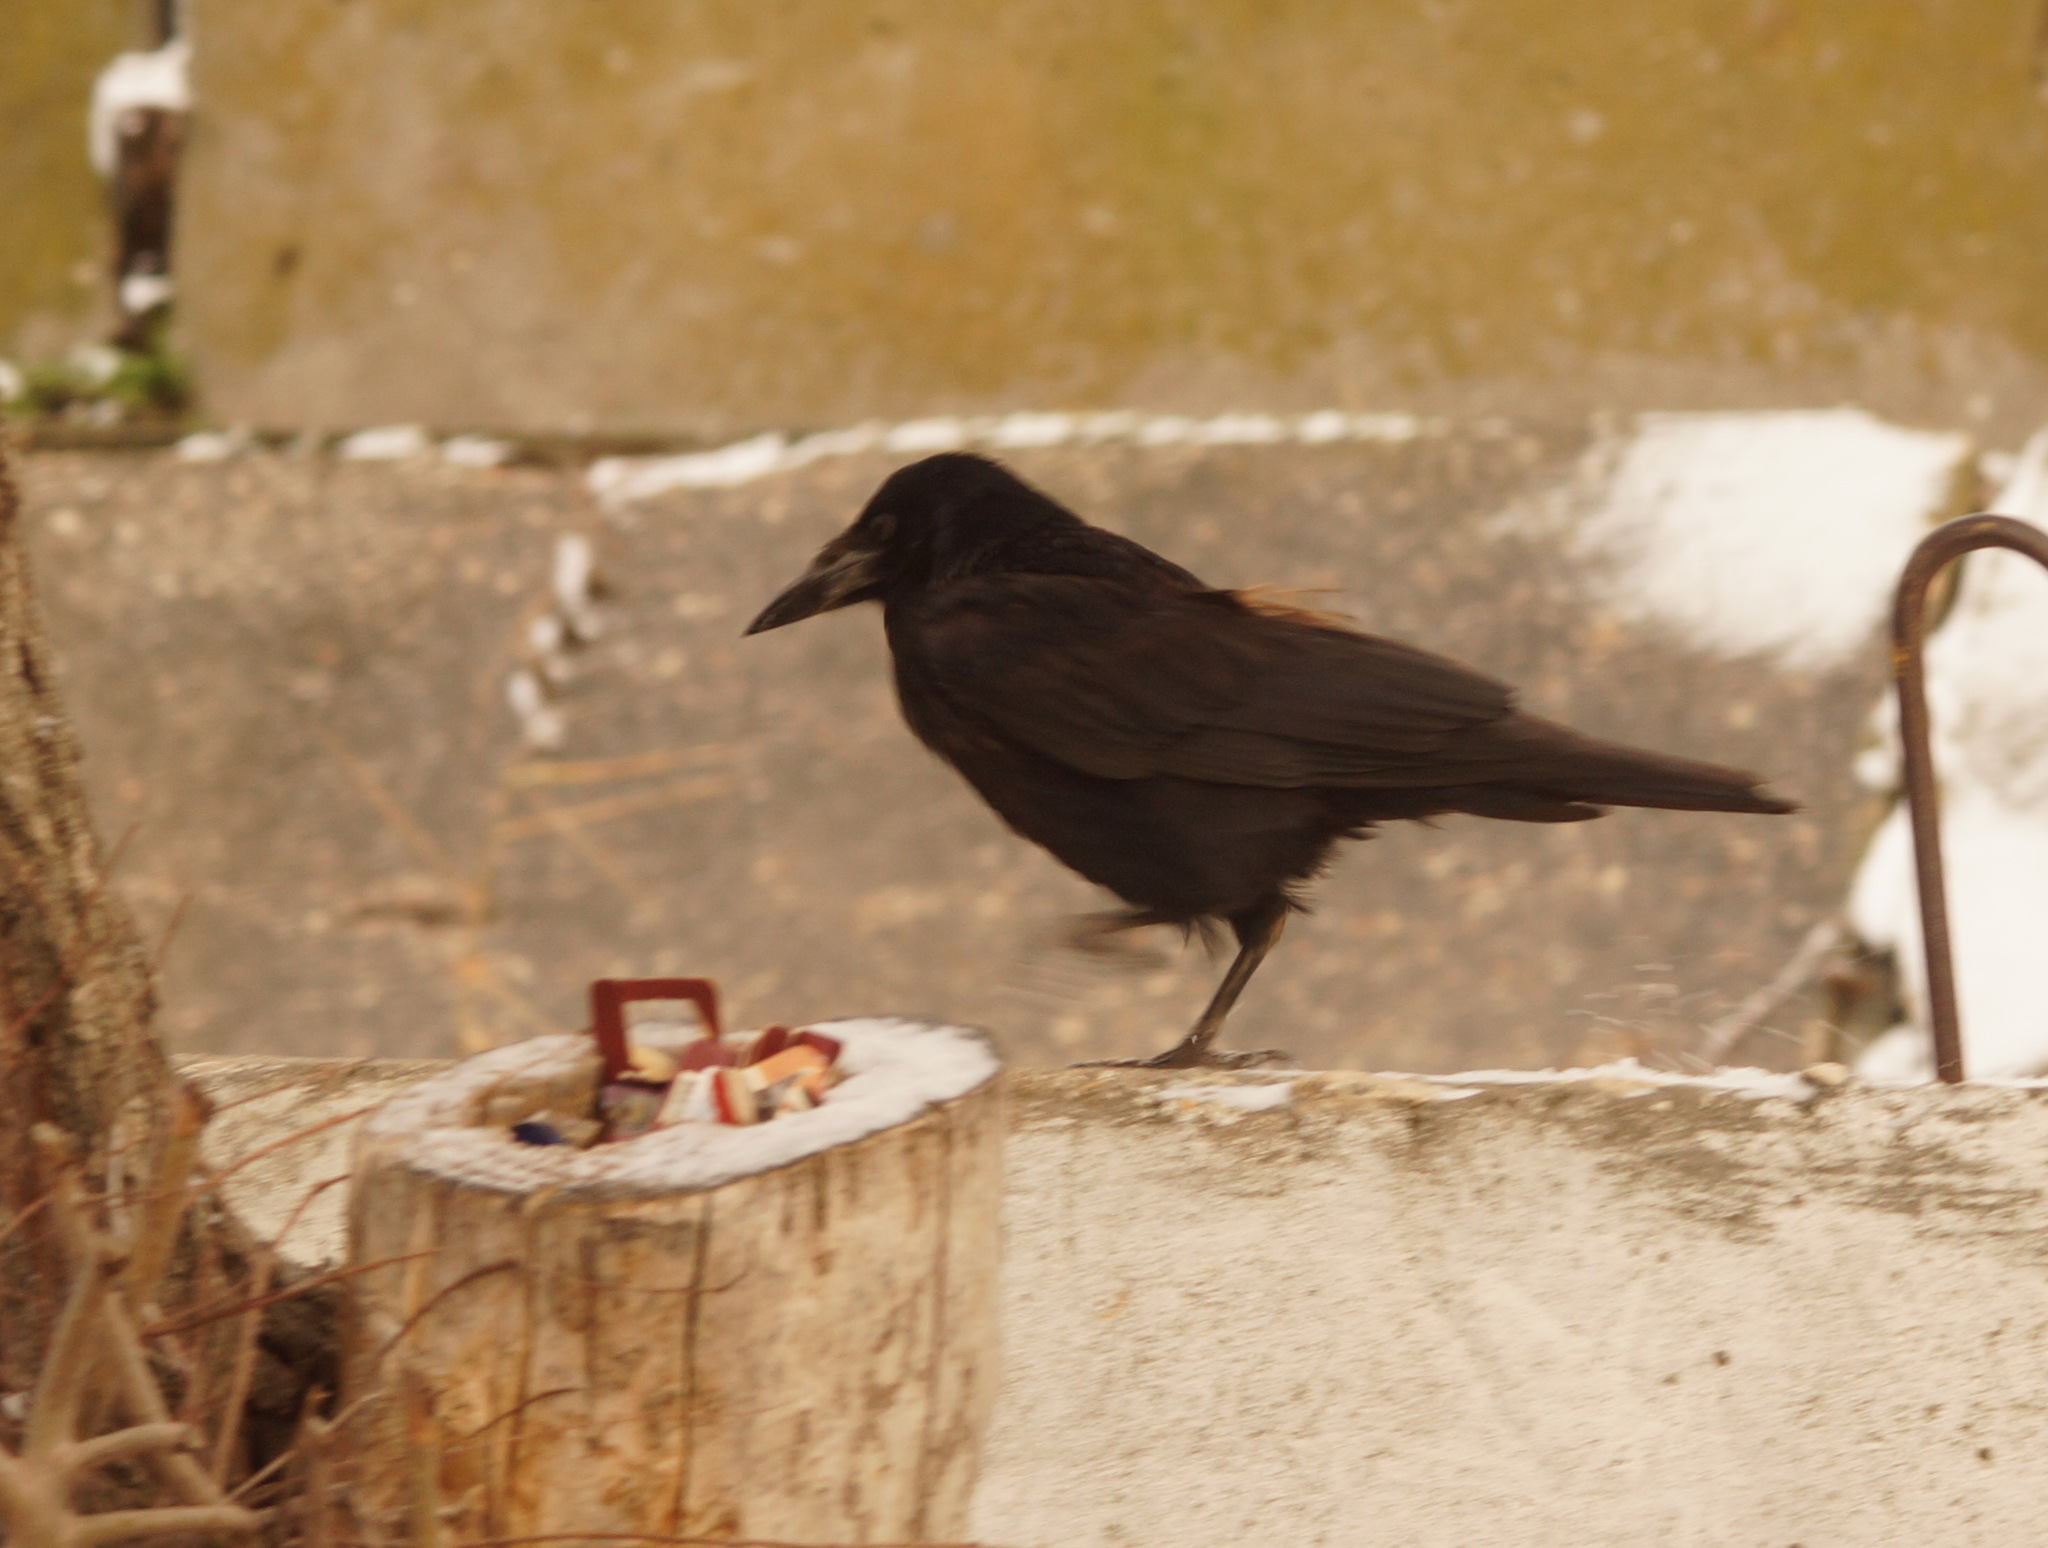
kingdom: Animalia
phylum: Chordata
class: Aves
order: Passeriformes
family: Corvidae
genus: Corvus
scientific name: Corvus frugilegus
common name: Rook
